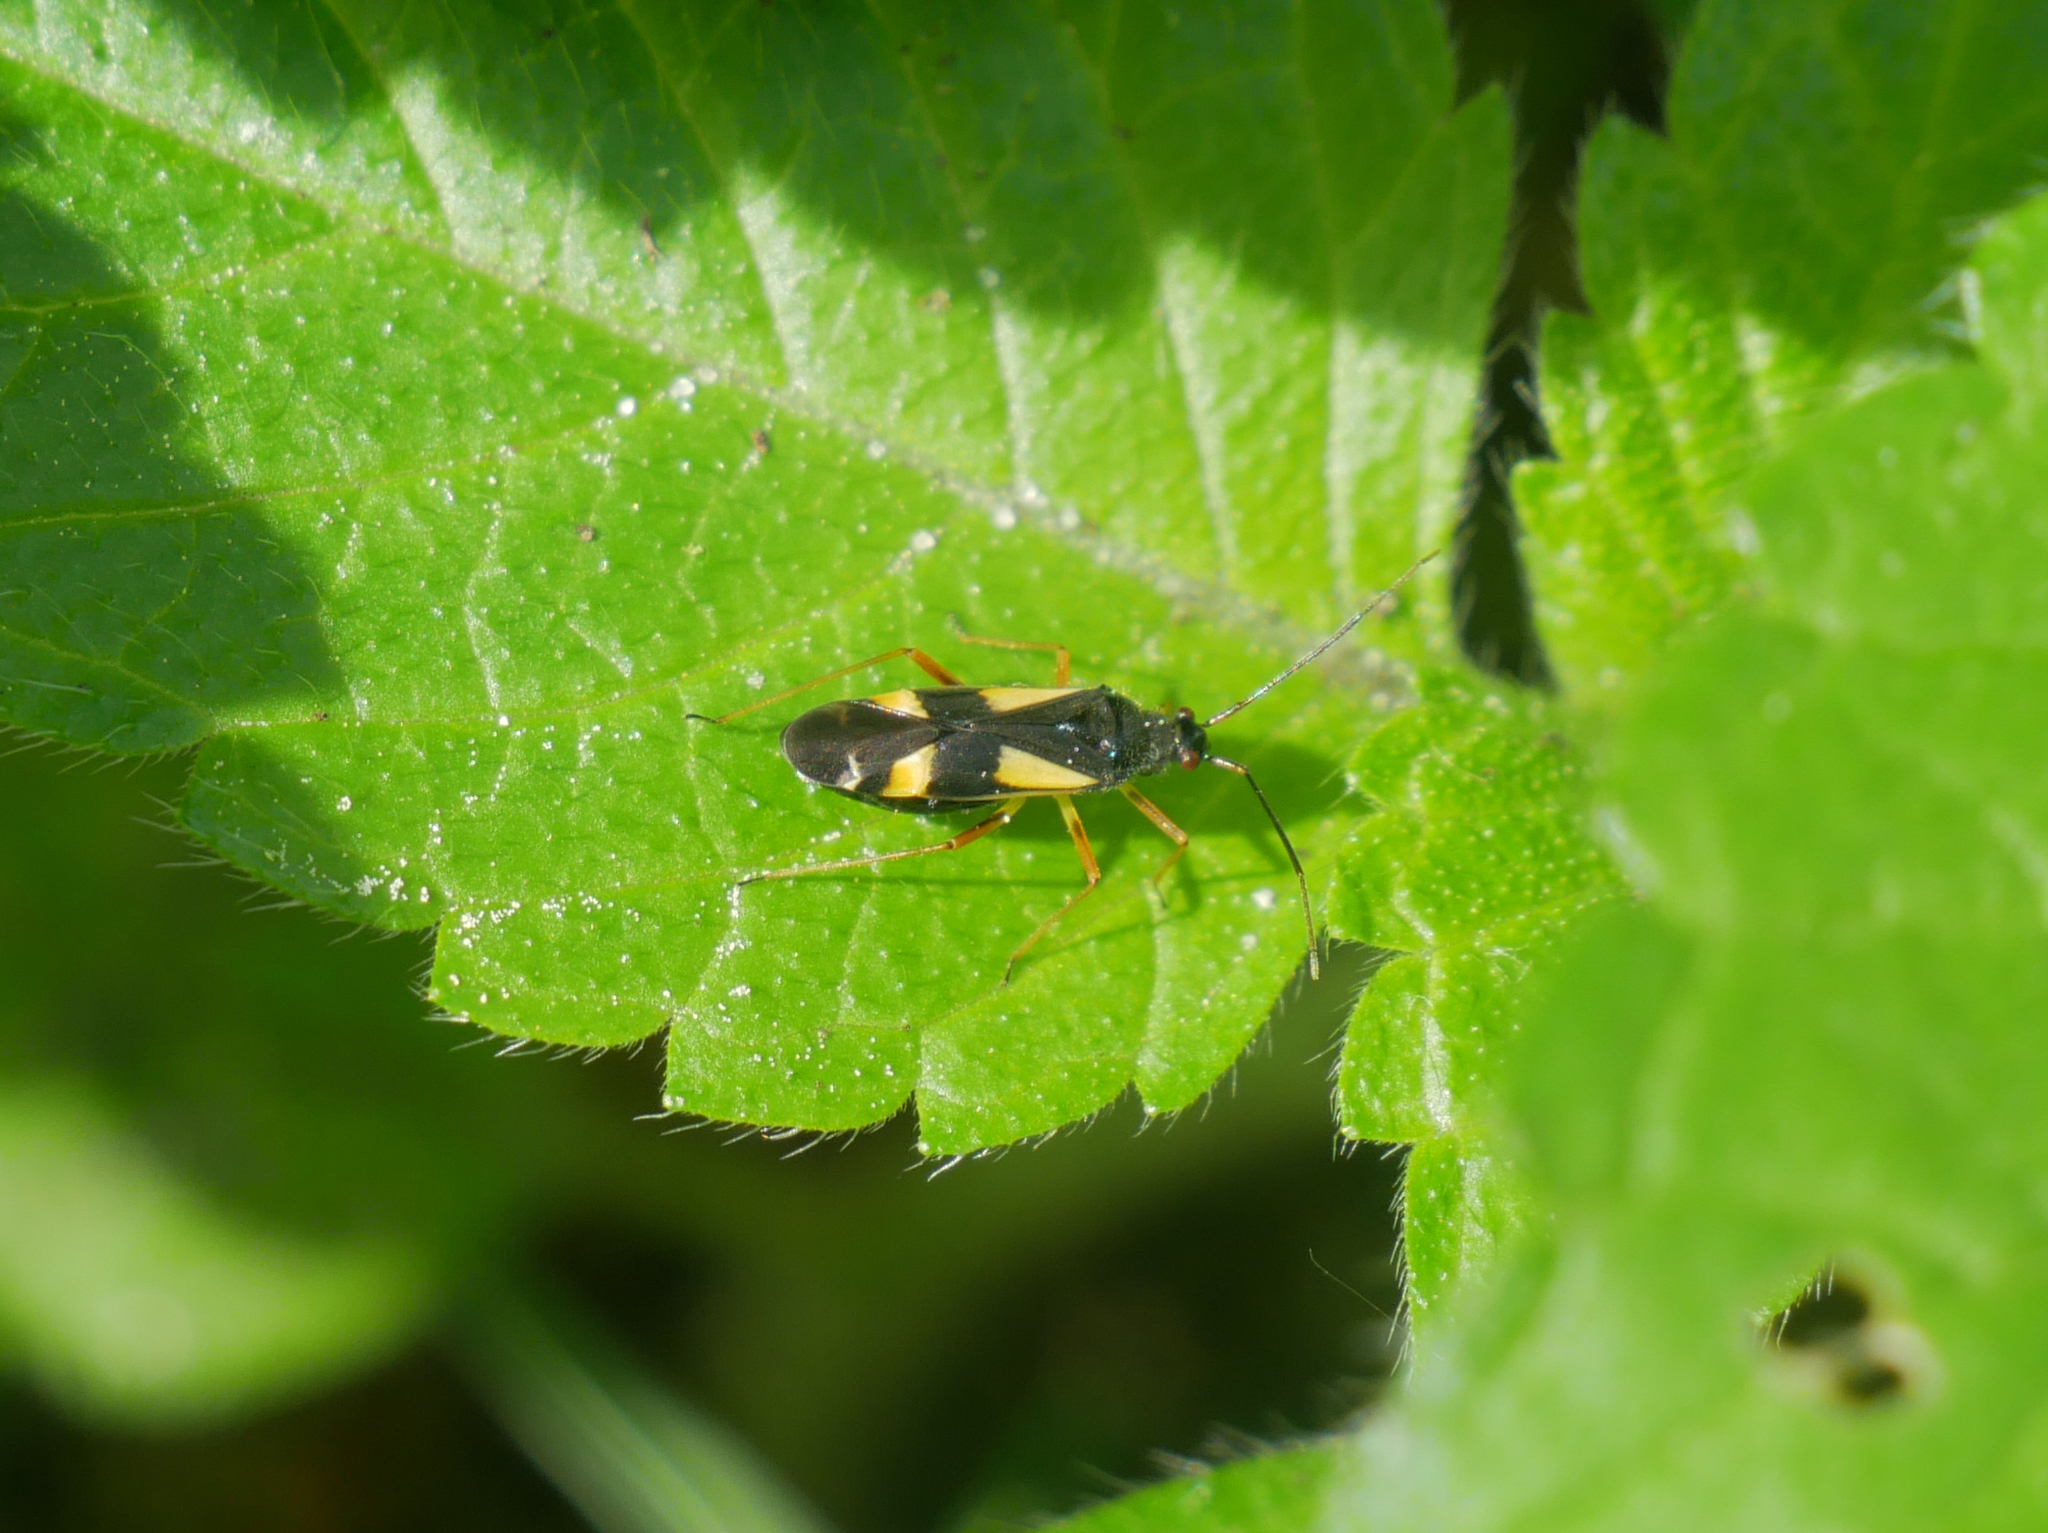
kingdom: Animalia
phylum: Arthropoda
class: Insecta
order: Hemiptera
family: Miridae
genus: Dryophilocoris
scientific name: Dryophilocoris flavoquadrimaculatus
